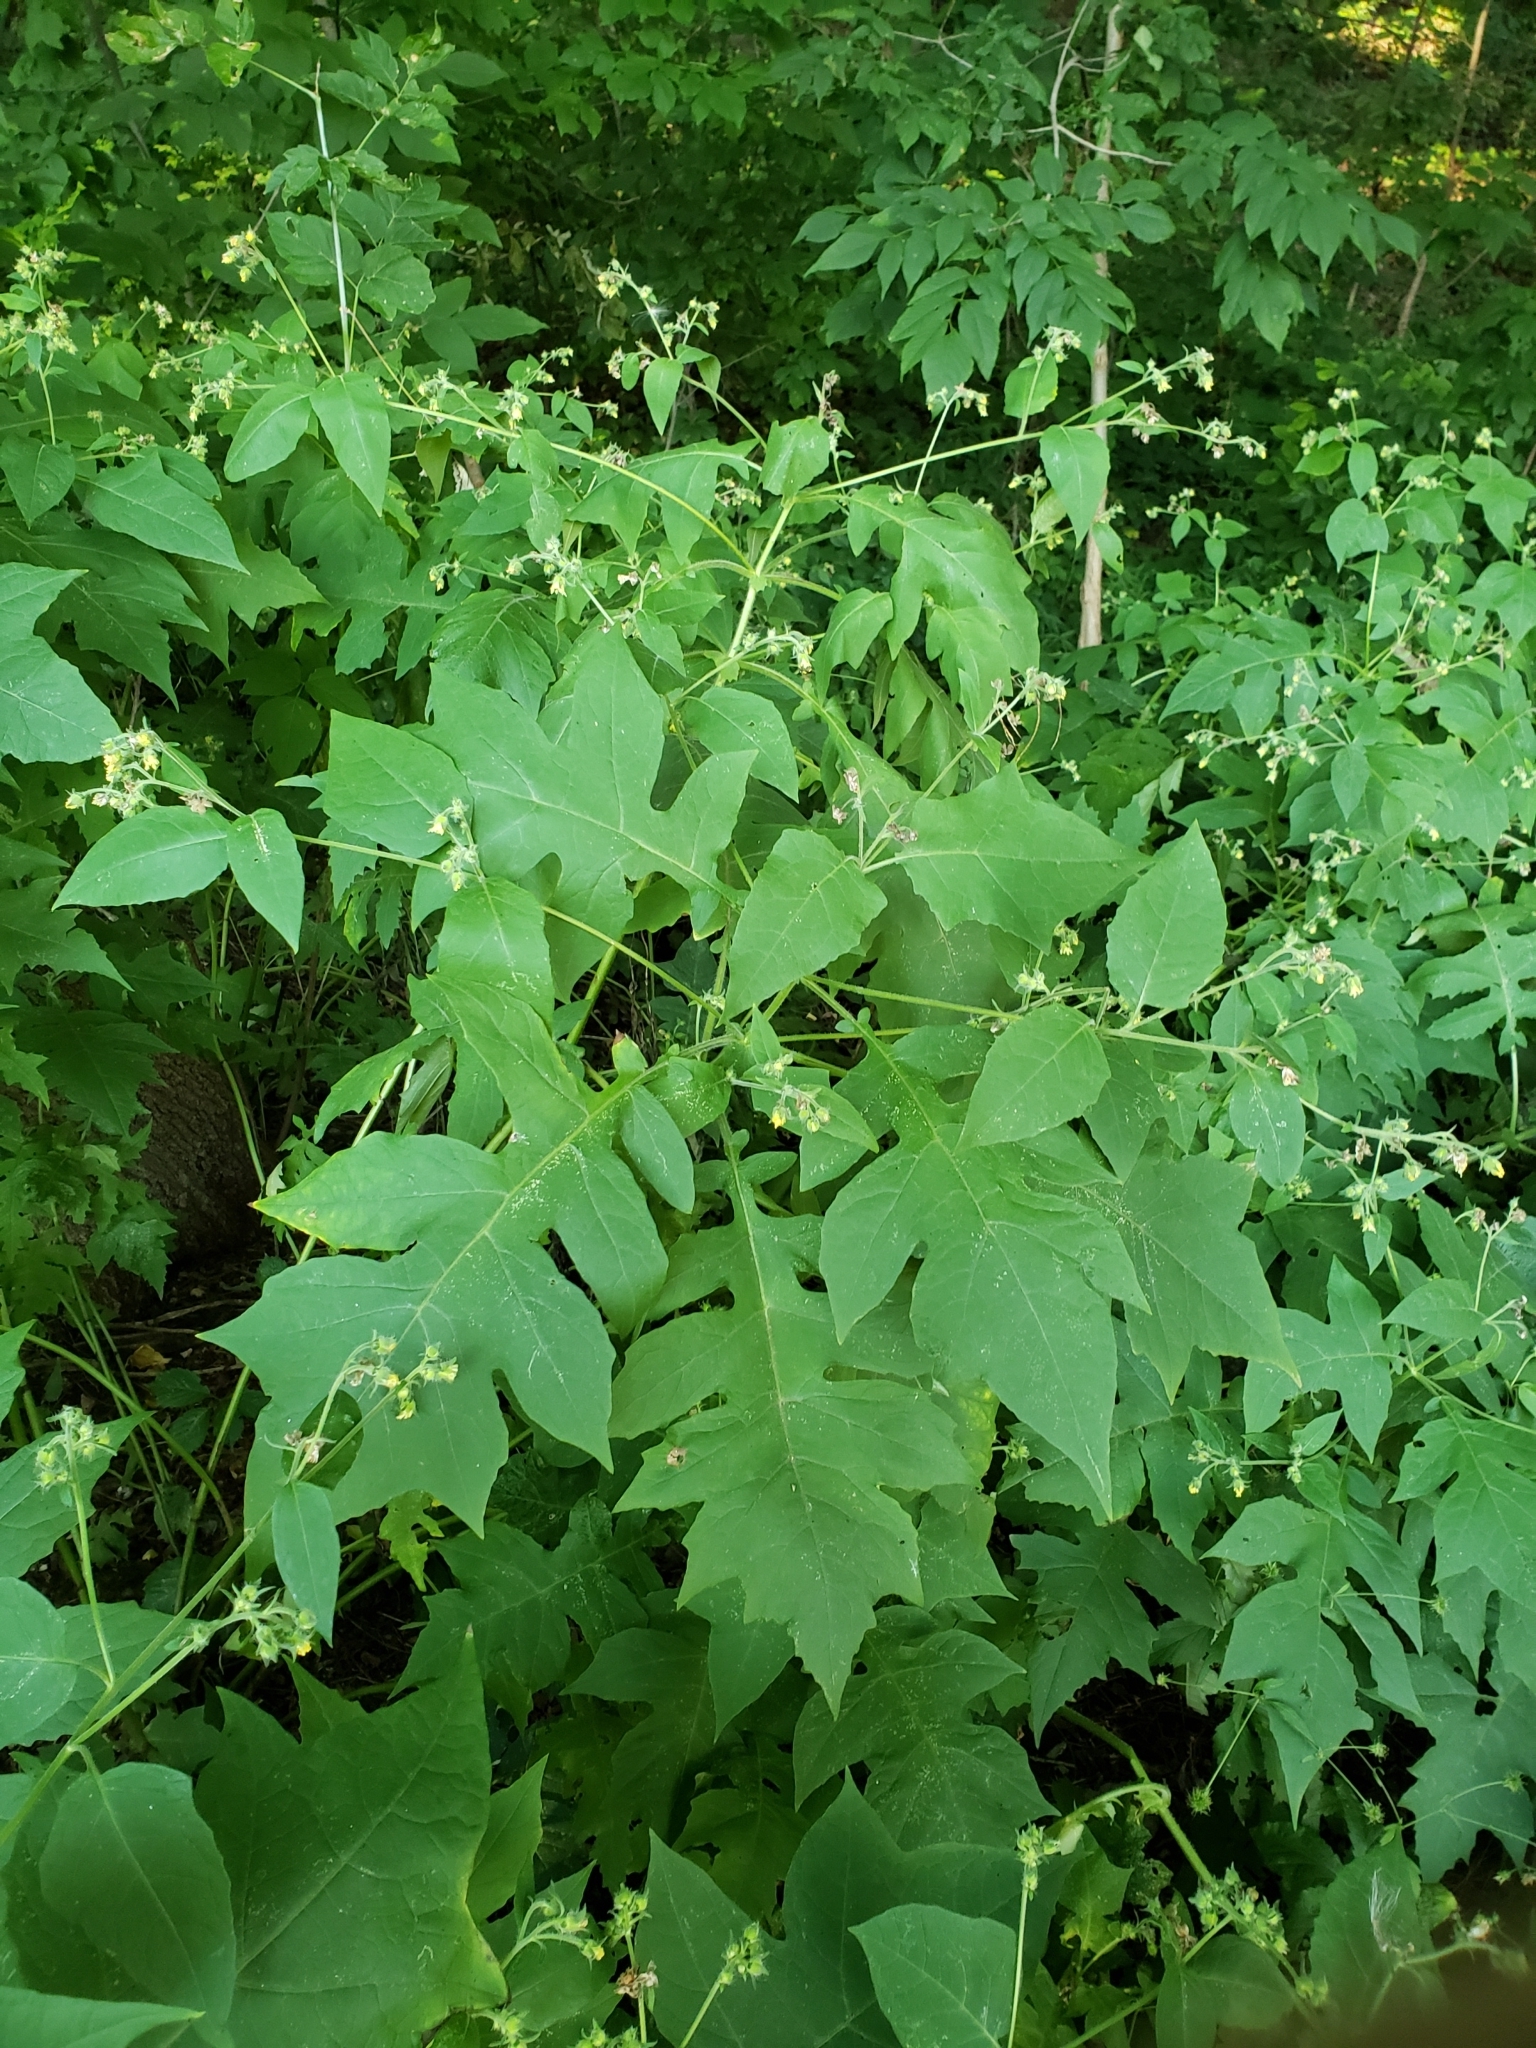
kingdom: Plantae
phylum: Tracheophyta
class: Magnoliopsida
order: Asterales
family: Asteraceae
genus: Polymnia
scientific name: Polymnia canadensis
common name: Pale-flowered leafcup
